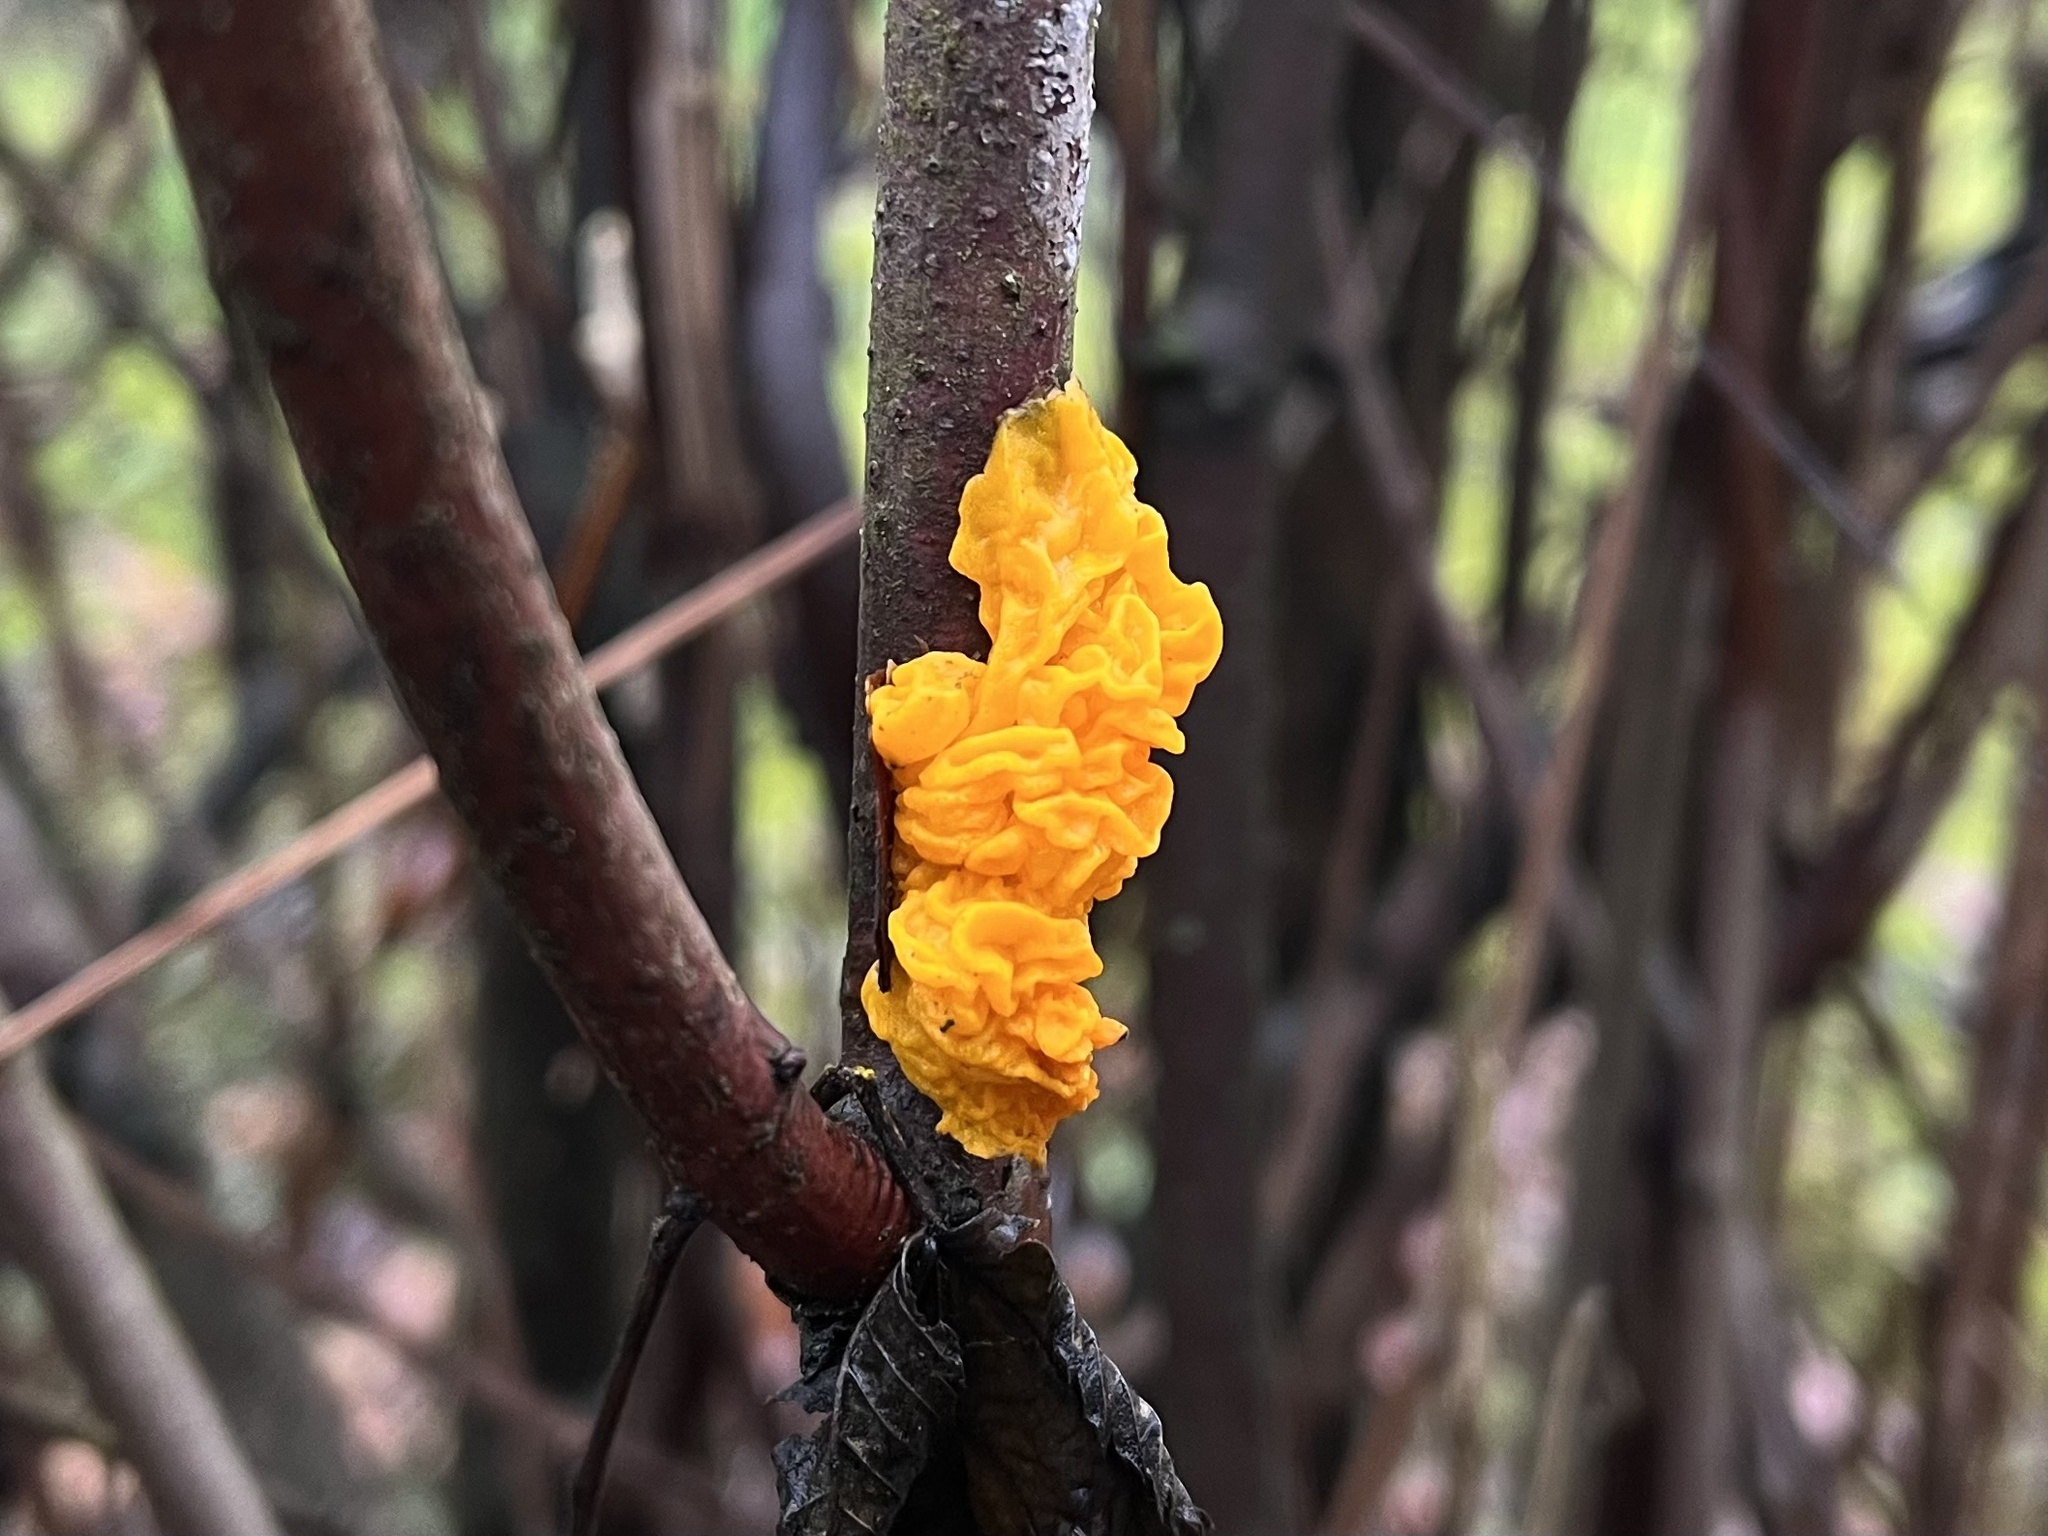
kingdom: Fungi
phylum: Basidiomycota
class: Tremellomycetes
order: Tremellales
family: Tremellaceae
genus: Tremella
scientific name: Tremella mesenterica
